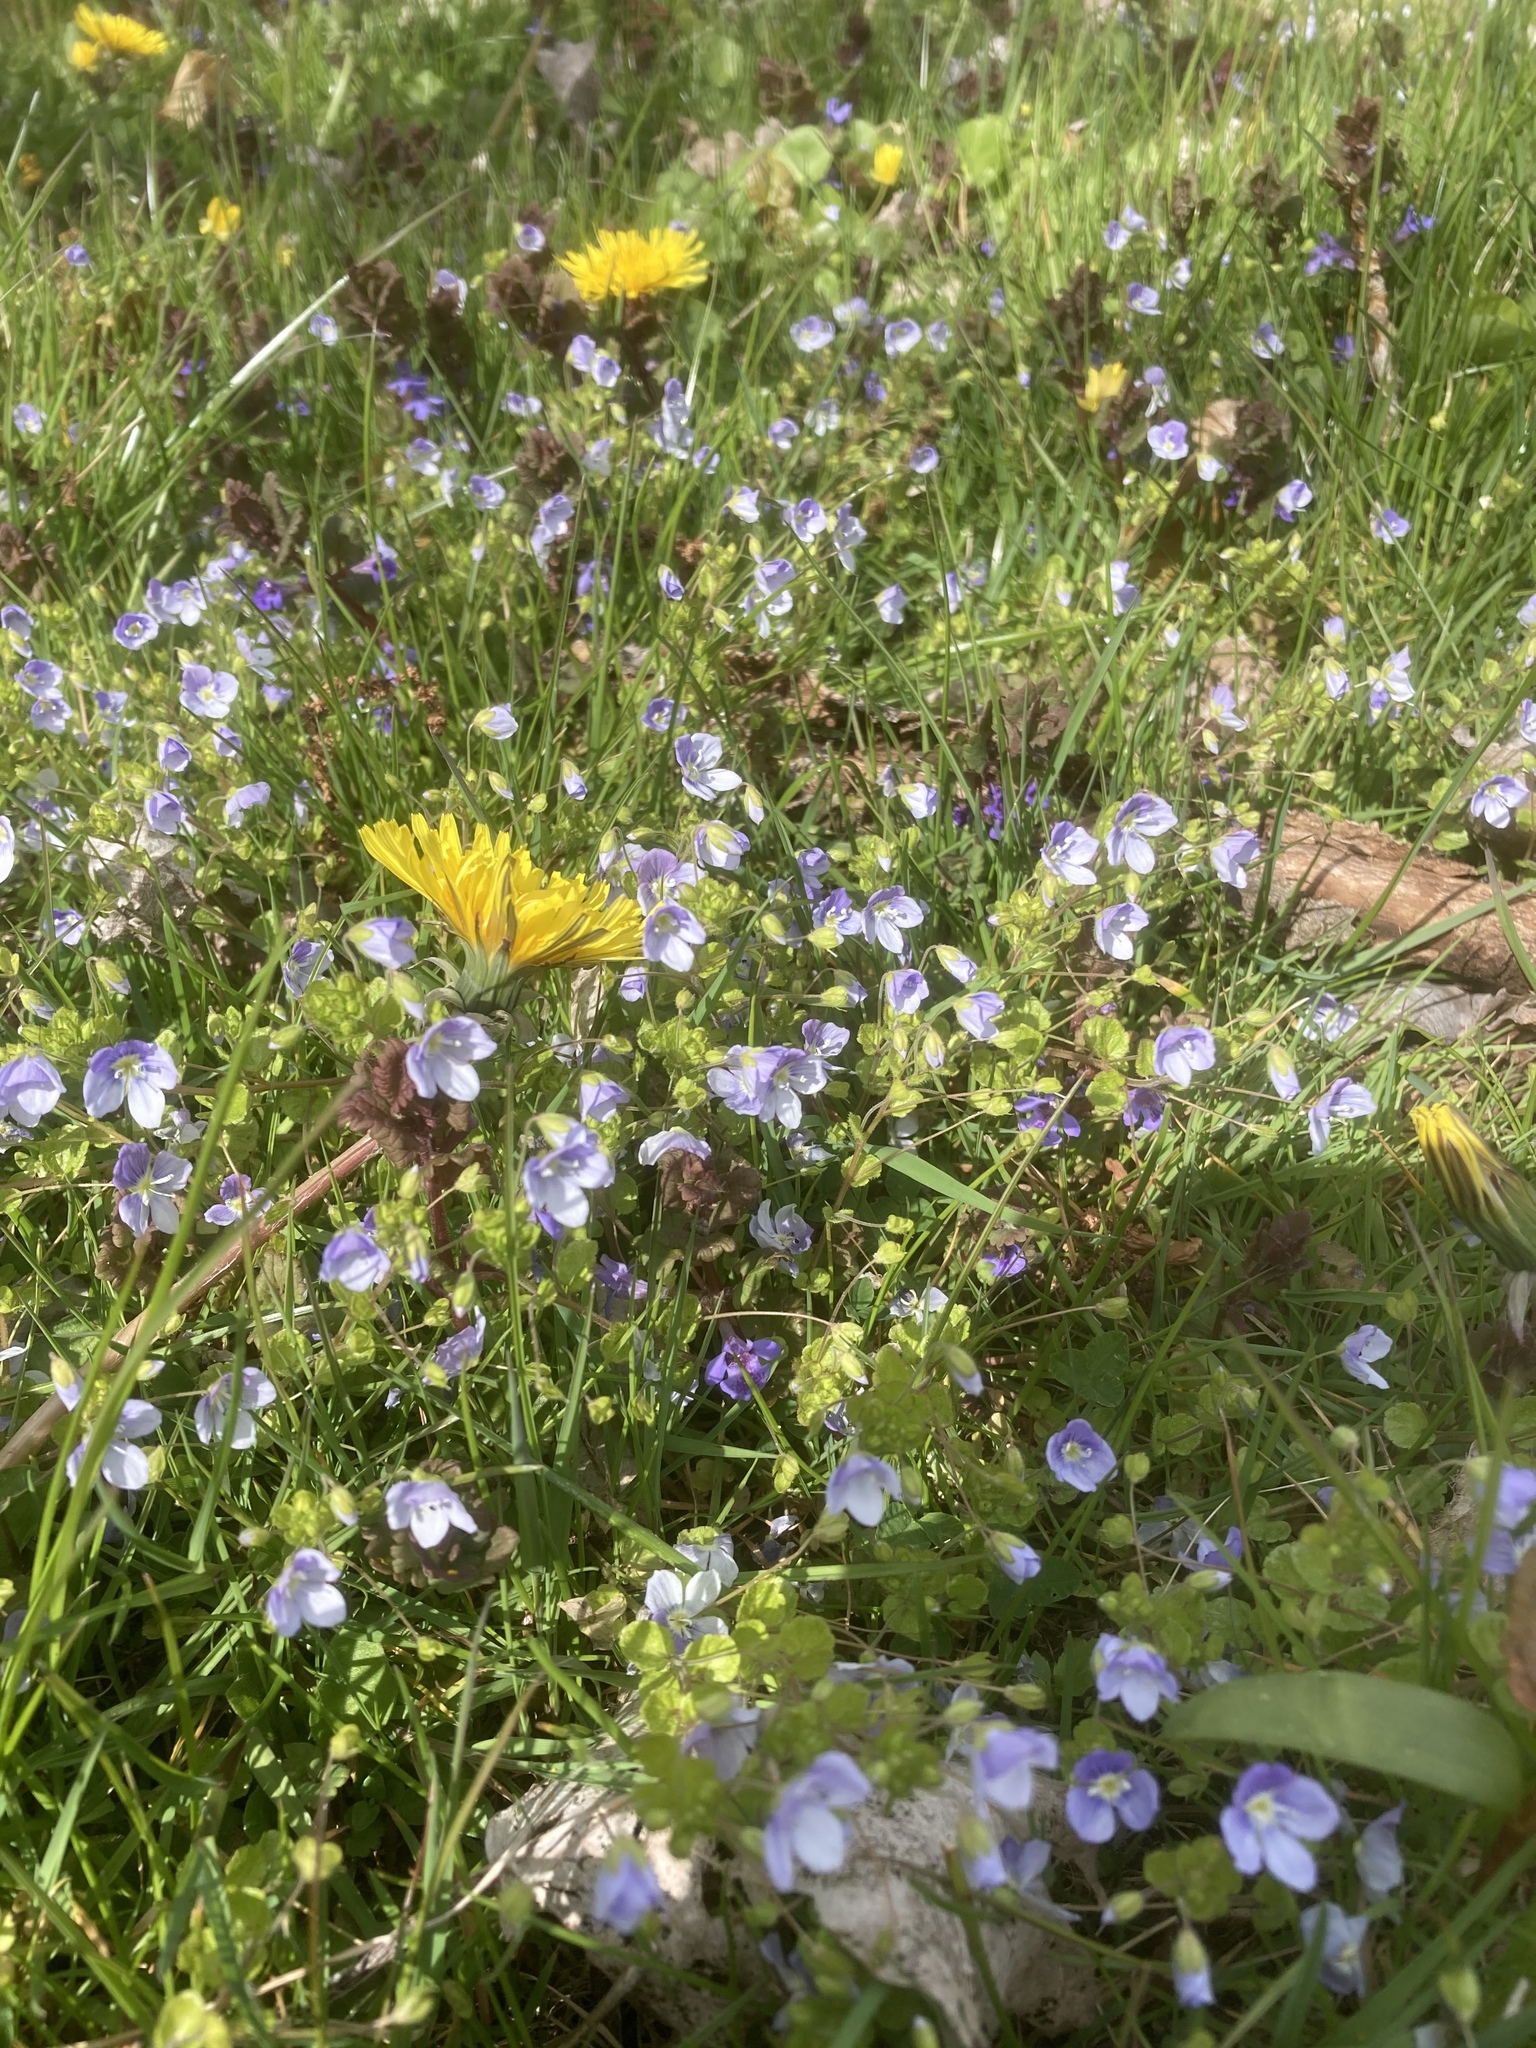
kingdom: Plantae
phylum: Tracheophyta
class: Magnoliopsida
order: Lamiales
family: Plantaginaceae
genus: Veronica
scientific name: Veronica filiformis
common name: Slender speedwell
